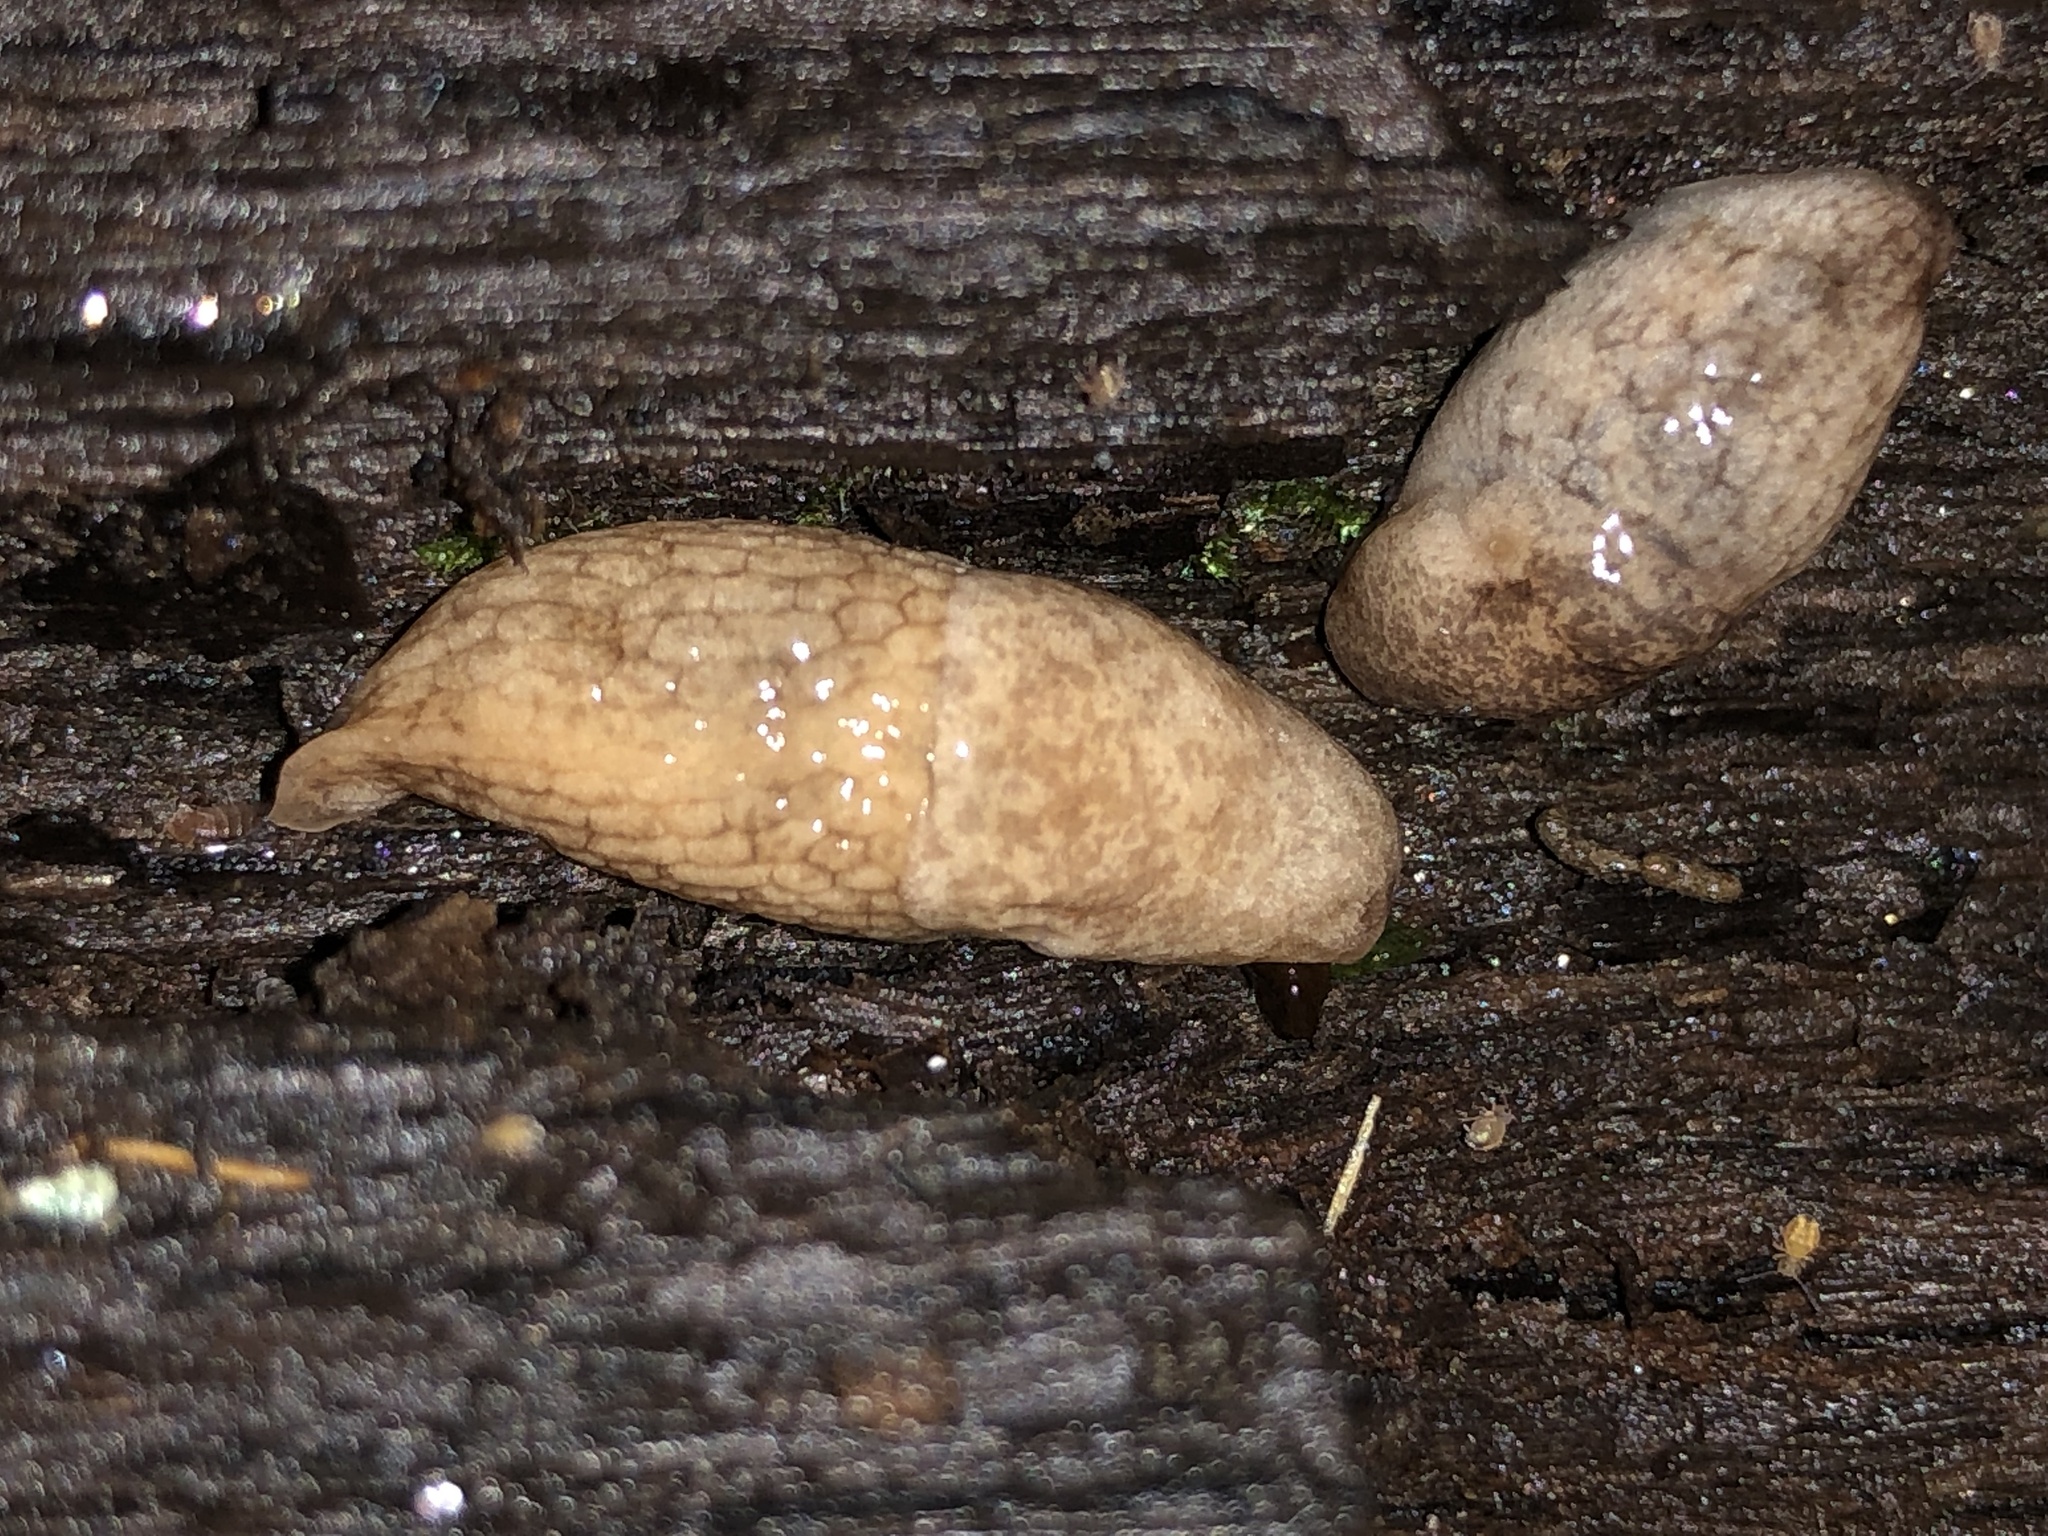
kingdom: Animalia
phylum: Mollusca
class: Gastropoda
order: Stylommatophora
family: Agriolimacidae
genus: Deroceras
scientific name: Deroceras reticulatum
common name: Gray field slug
